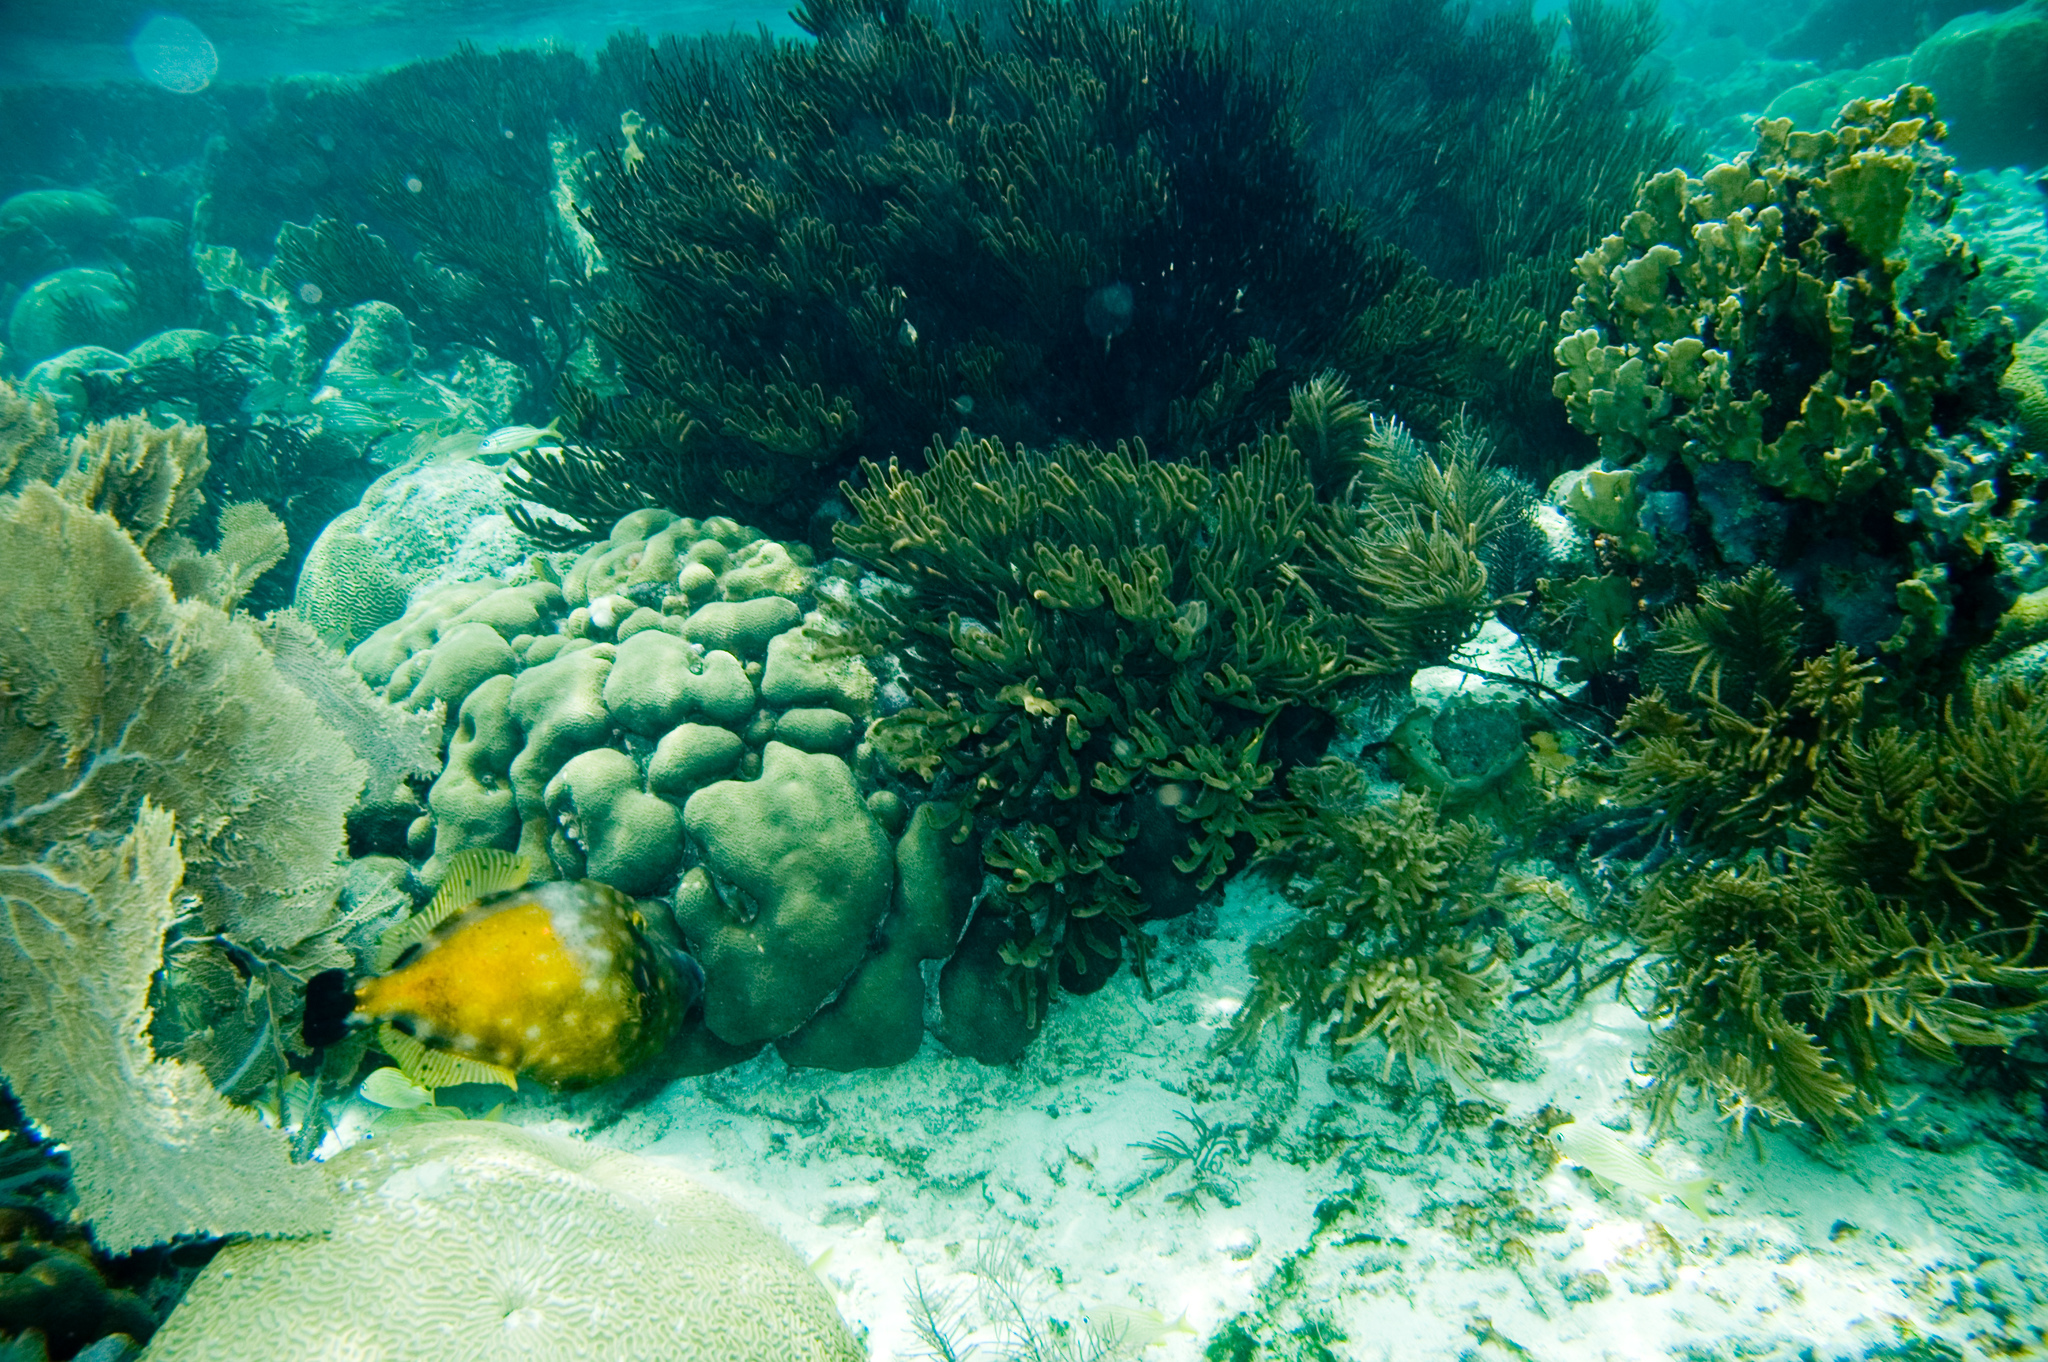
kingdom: Animalia
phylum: Chordata
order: Tetraodontiformes
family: Monacanthidae
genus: Cantherhines
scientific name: Cantherhines macrocerus
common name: Whitespotted filefish
